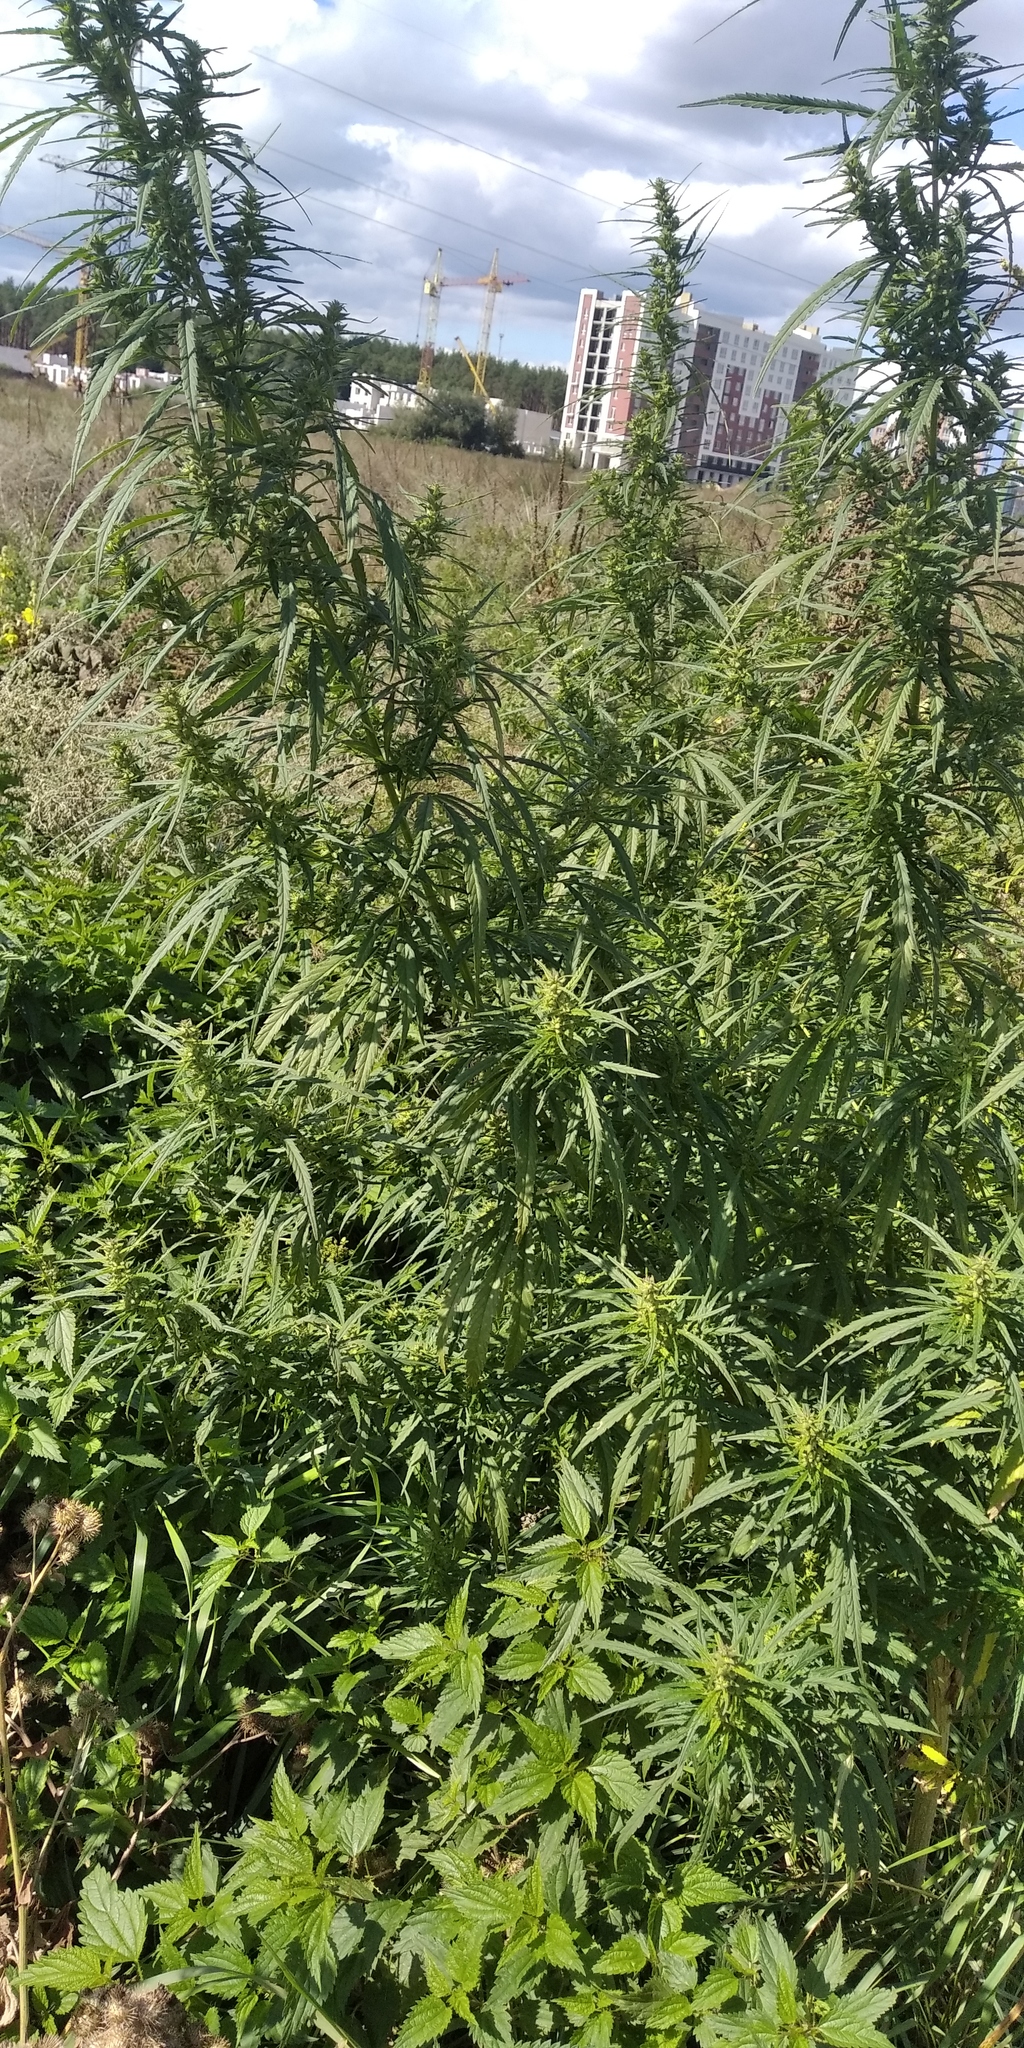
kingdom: Plantae
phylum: Tracheophyta
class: Magnoliopsida
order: Rosales
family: Cannabaceae
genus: Cannabis
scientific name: Cannabis sativa
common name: Hemp
